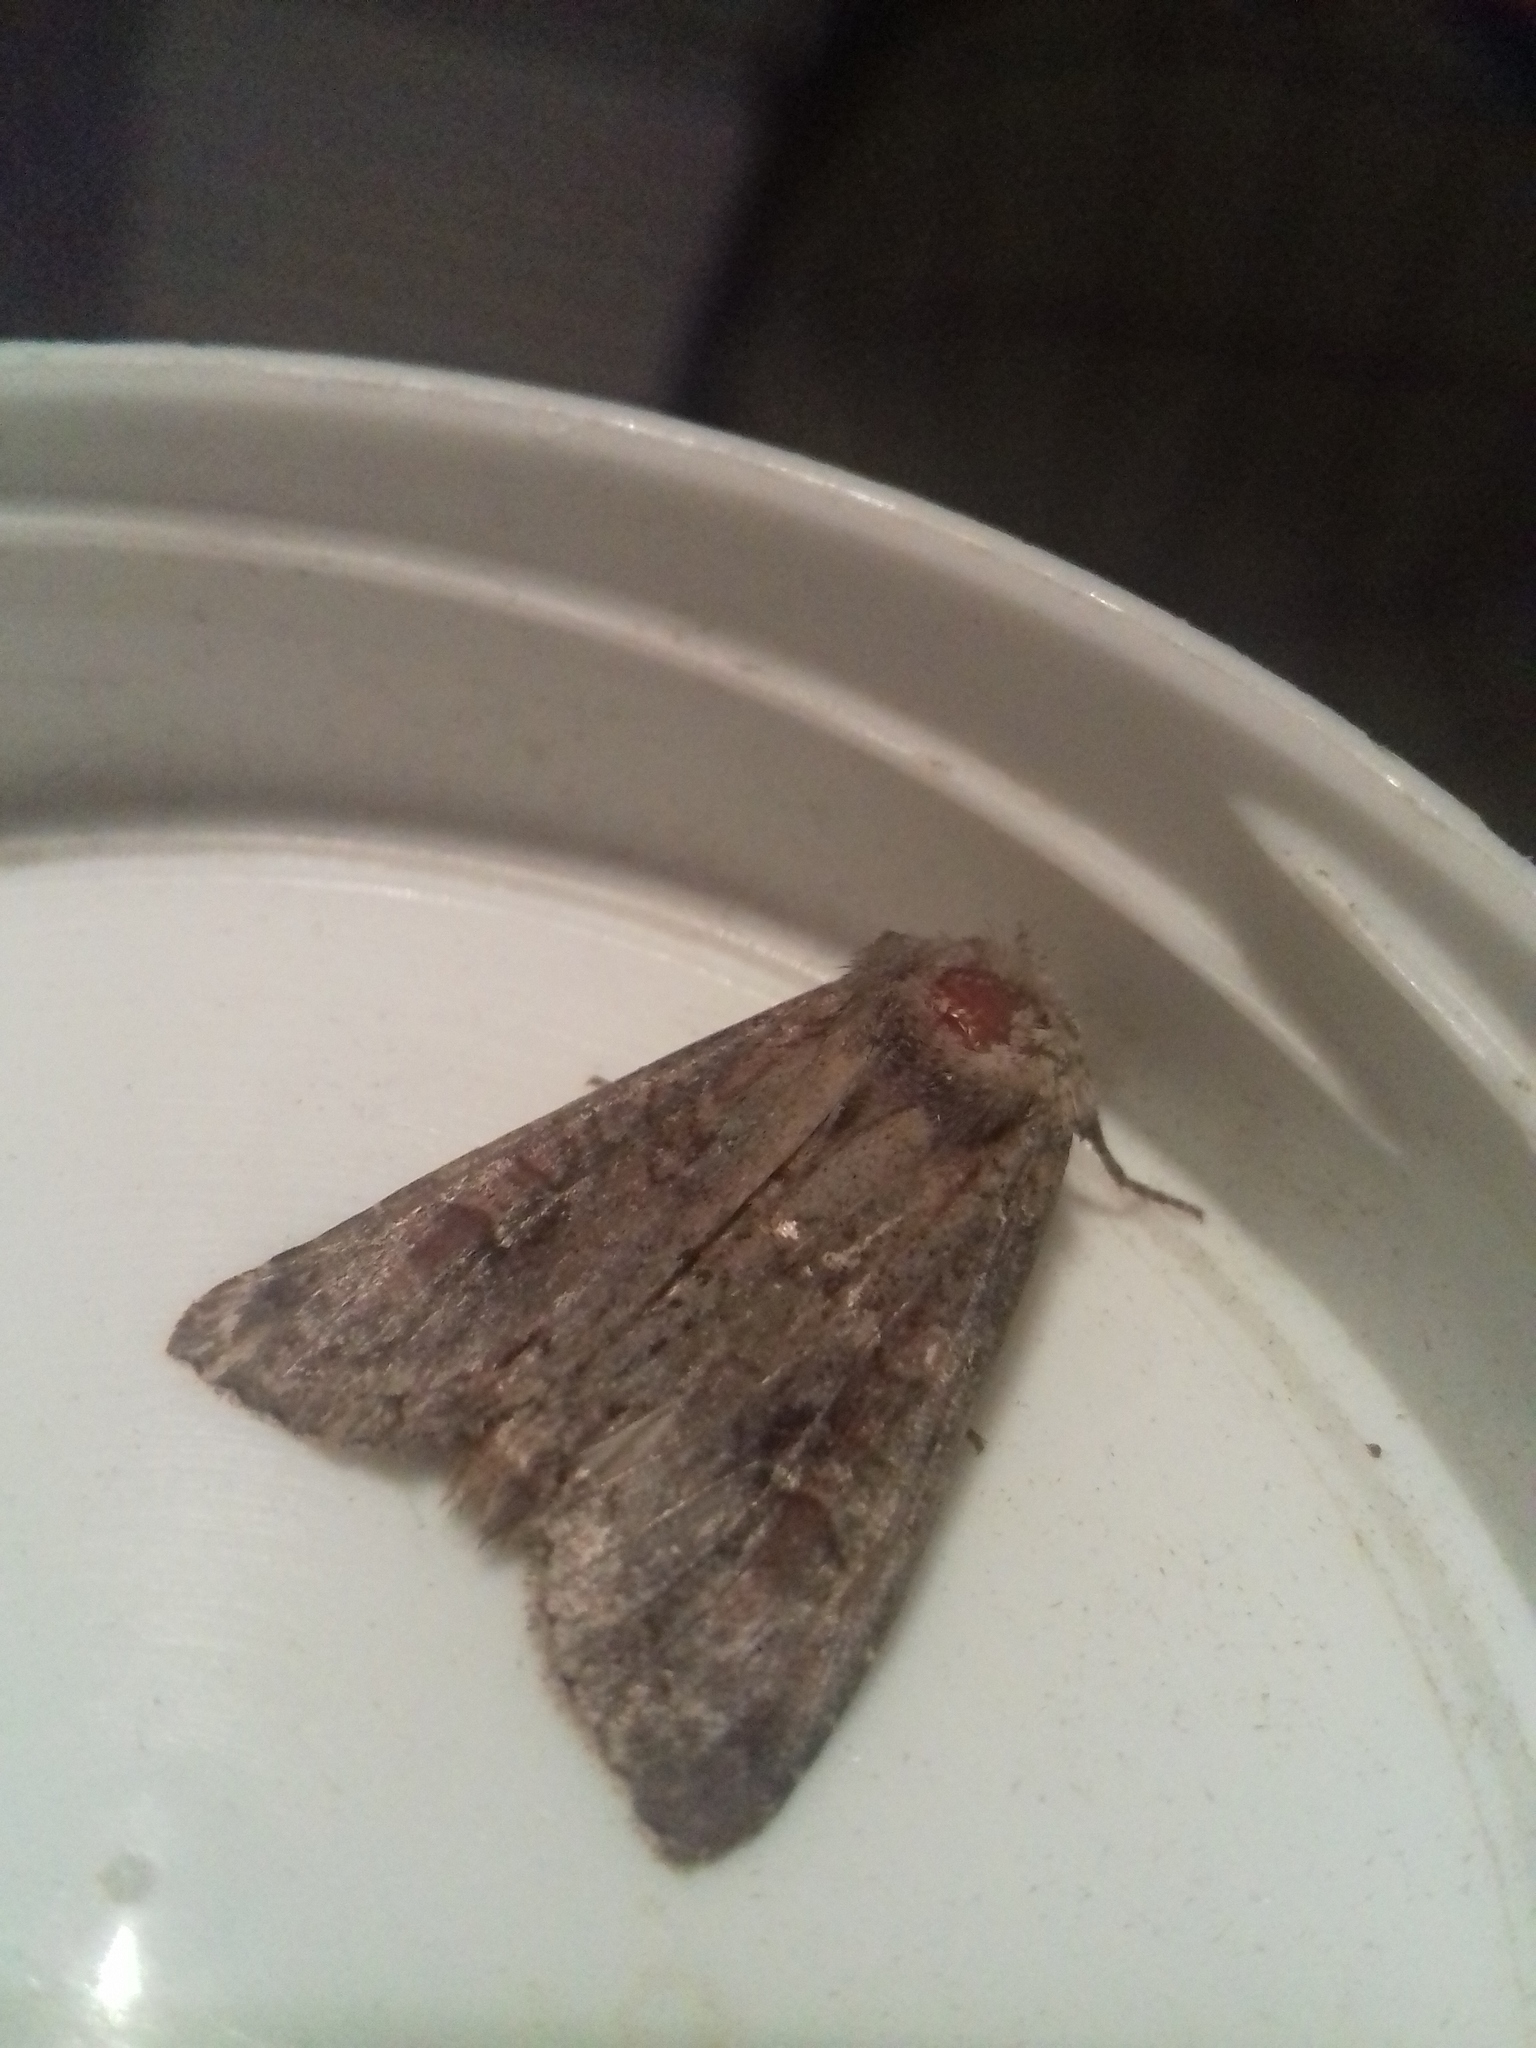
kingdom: Animalia
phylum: Arthropoda
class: Insecta
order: Lepidoptera
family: Noctuidae
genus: Polia
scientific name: Polia bombycina
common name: Pale shining brown
